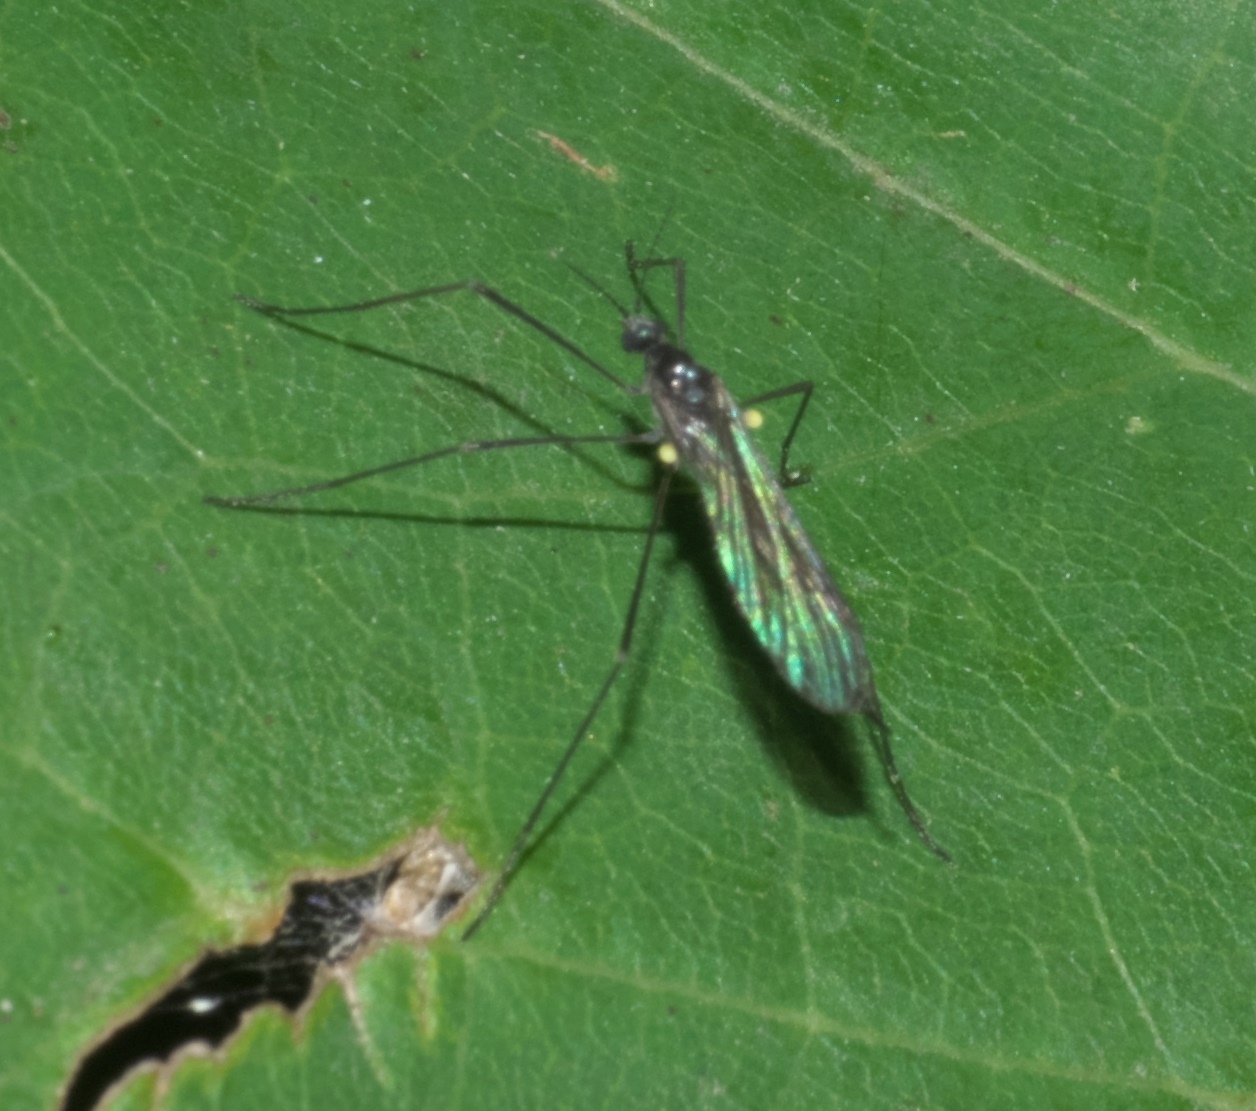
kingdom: Animalia
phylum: Arthropoda
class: Insecta
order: Diptera
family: Limoniidae
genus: Gnophomyia
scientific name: Gnophomyia tristissima
